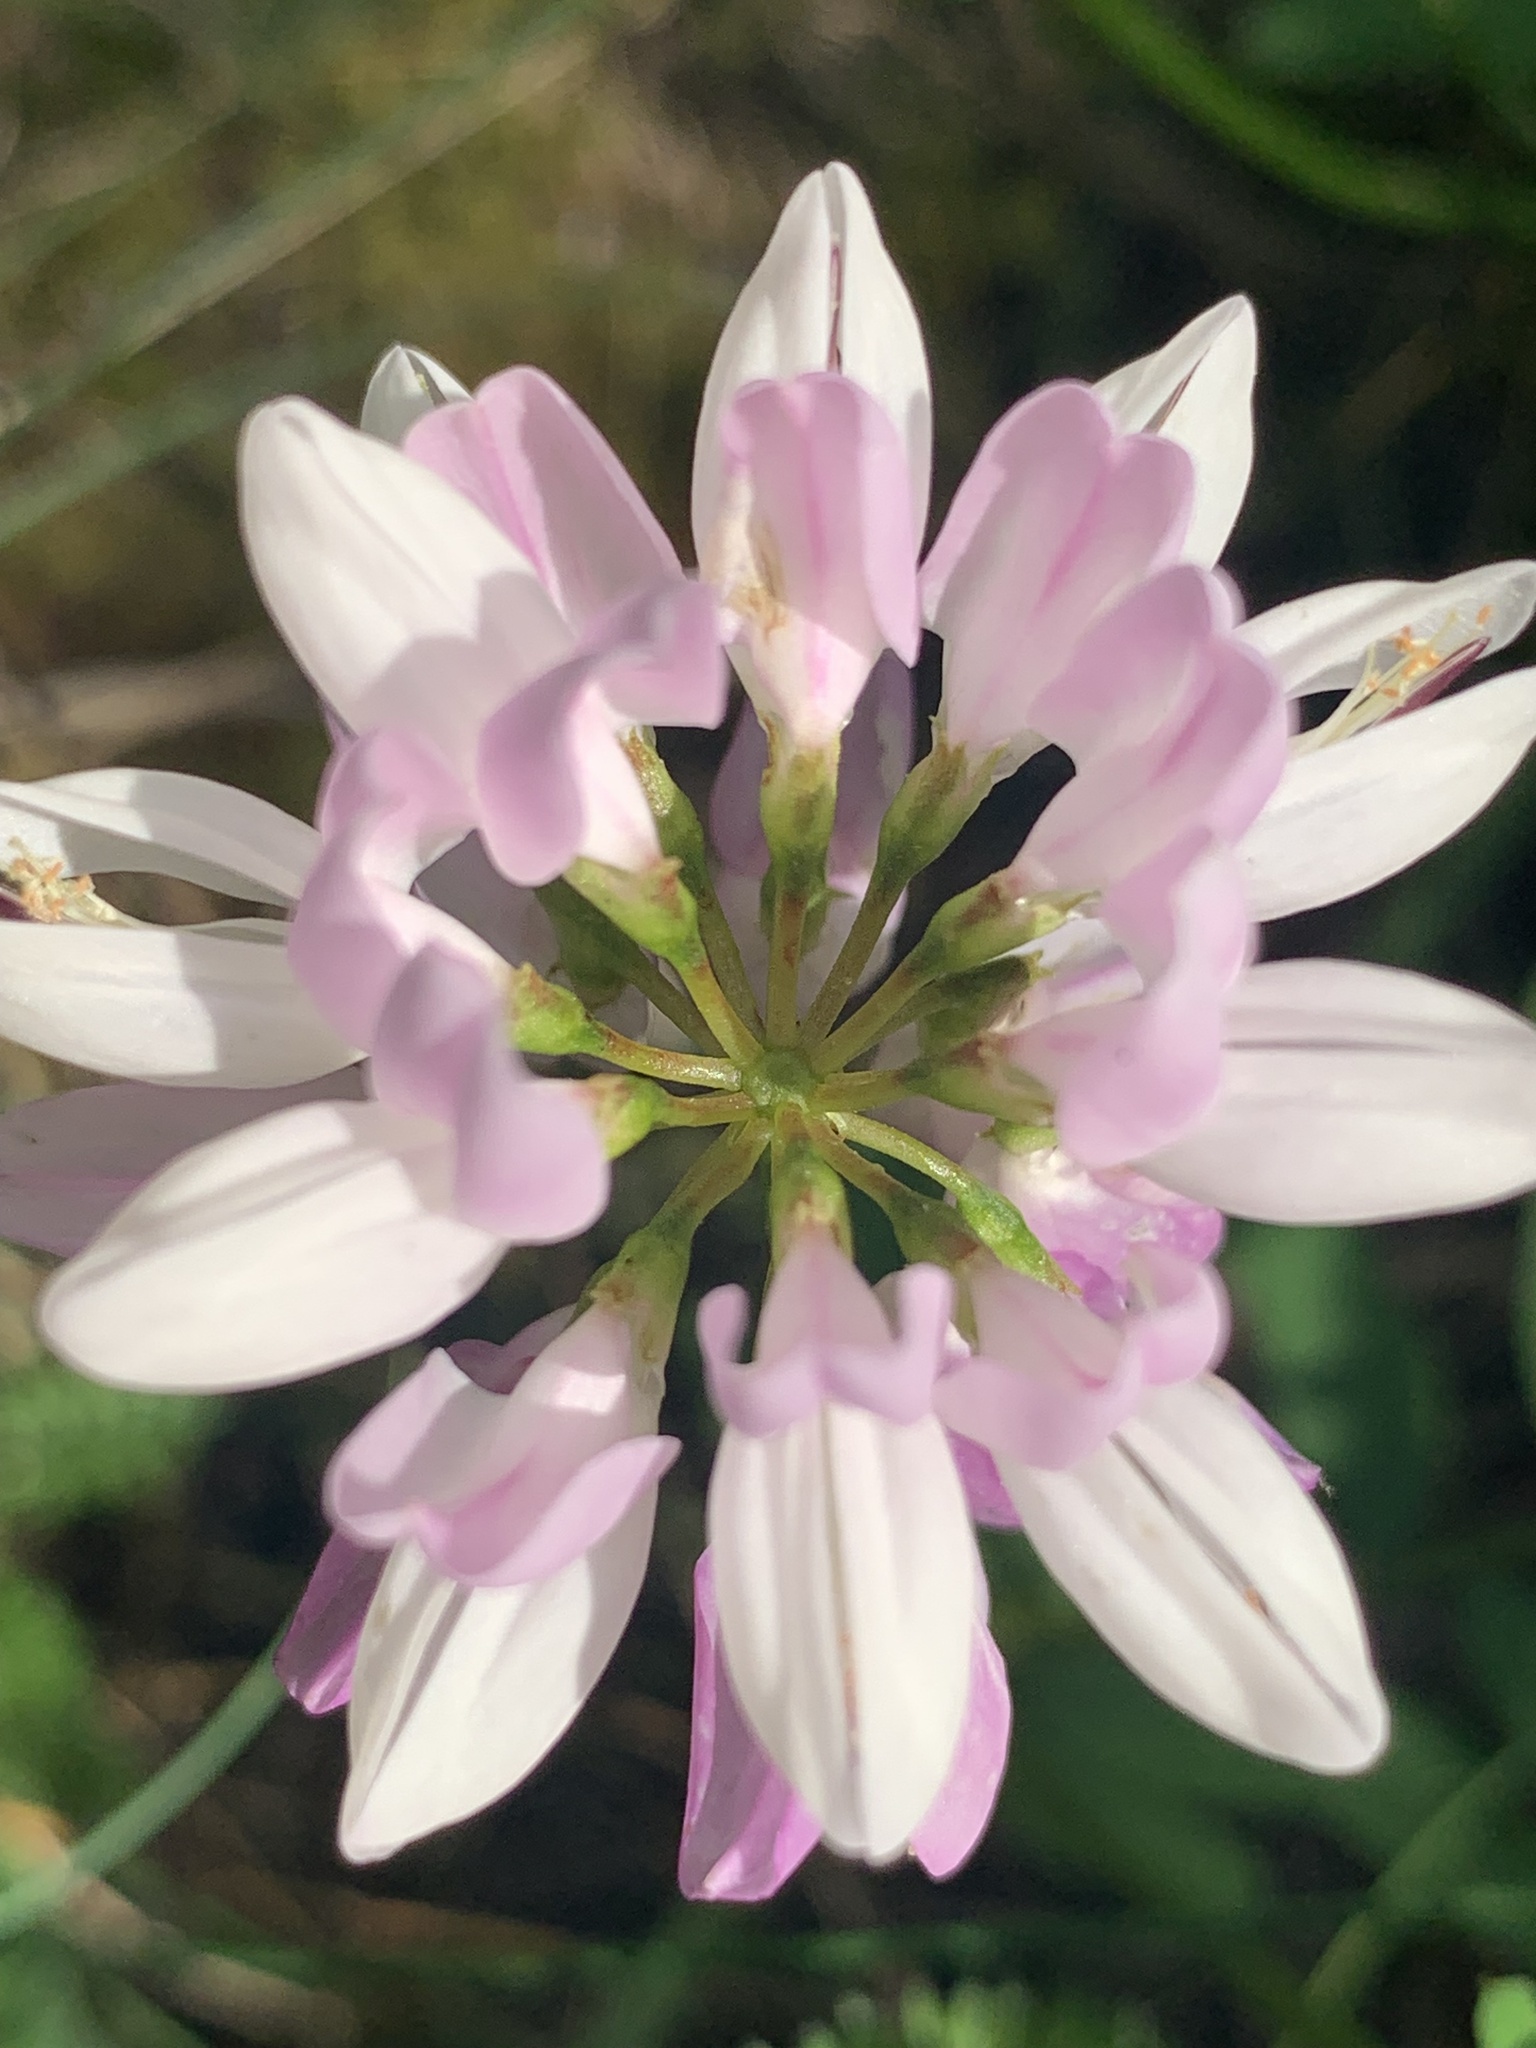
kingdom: Plantae
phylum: Tracheophyta
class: Magnoliopsida
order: Fabales
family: Fabaceae
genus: Coronilla
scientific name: Coronilla varia
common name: Crownvetch
